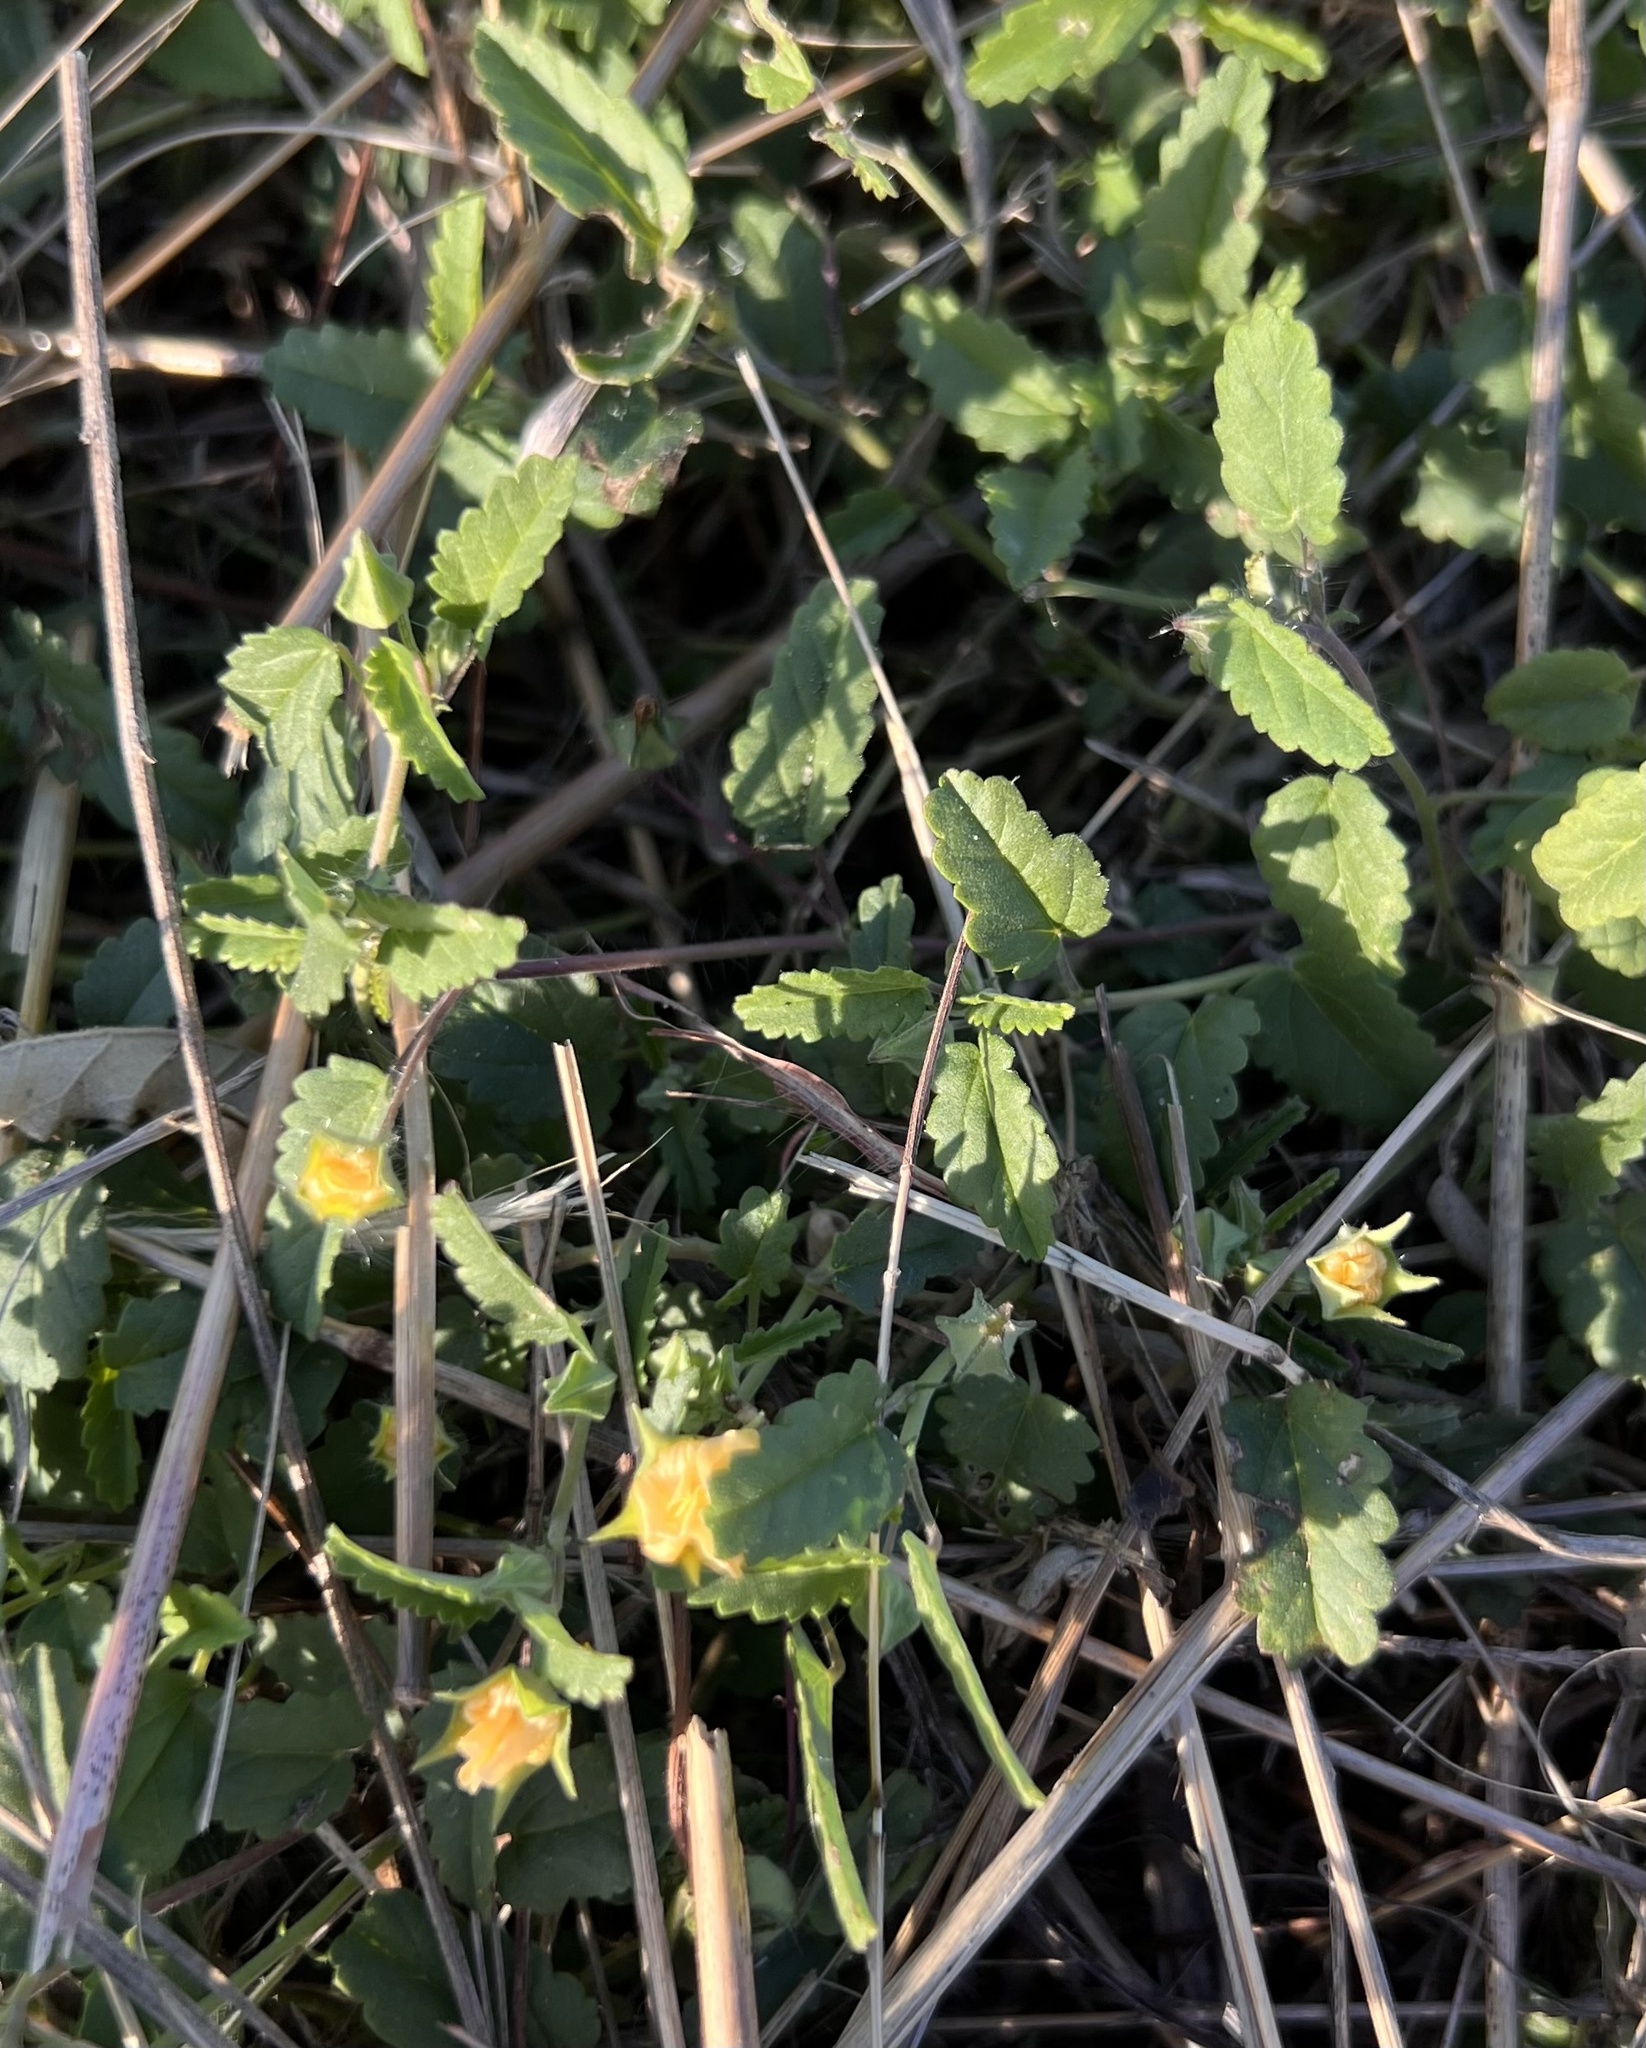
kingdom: Plantae
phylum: Tracheophyta
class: Magnoliopsida
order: Malvales
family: Malvaceae
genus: Sida
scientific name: Sida abutilifolia
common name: Spreading fanpetals
